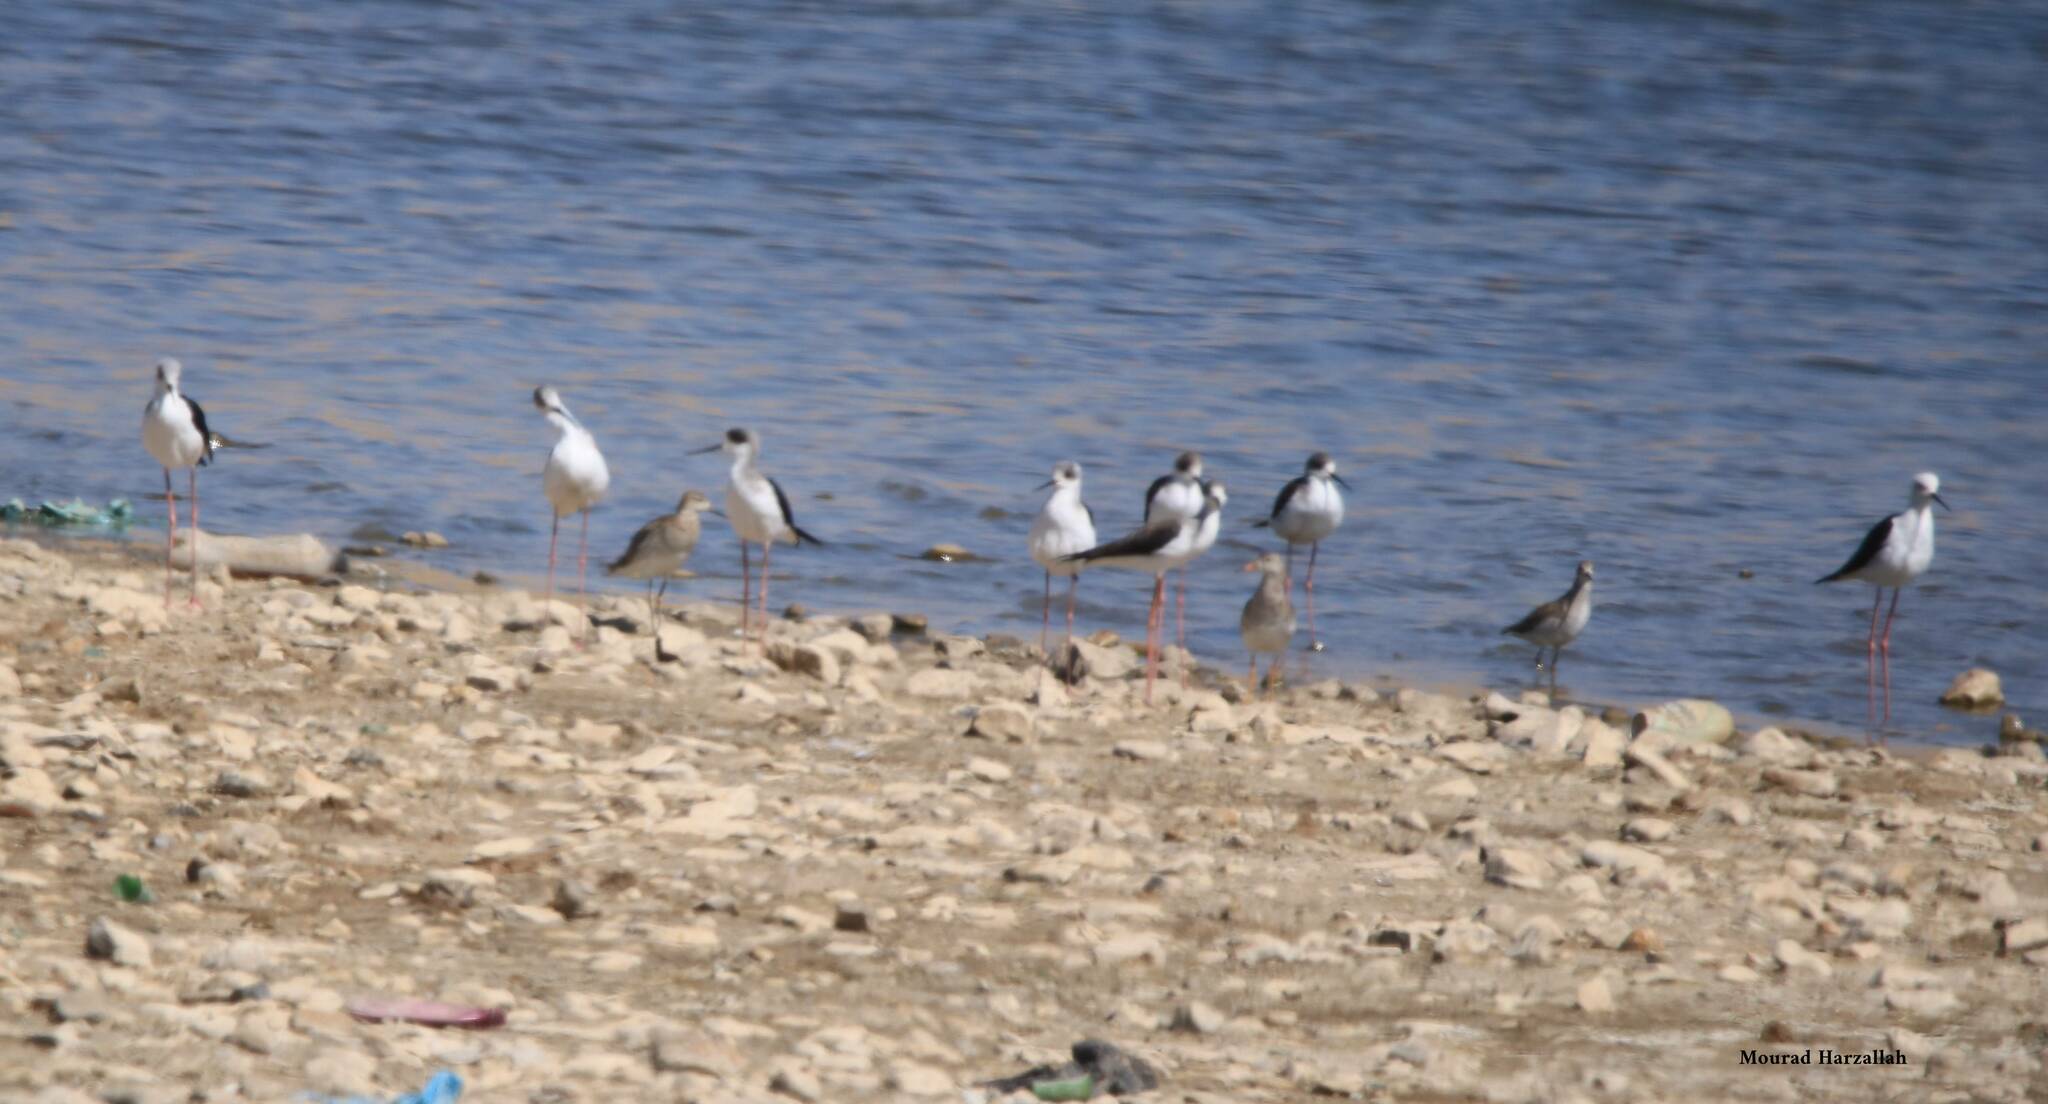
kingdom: Animalia
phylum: Chordata
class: Aves
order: Charadriiformes
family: Recurvirostridae
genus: Himantopus
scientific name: Himantopus himantopus
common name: Black-winged stilt
